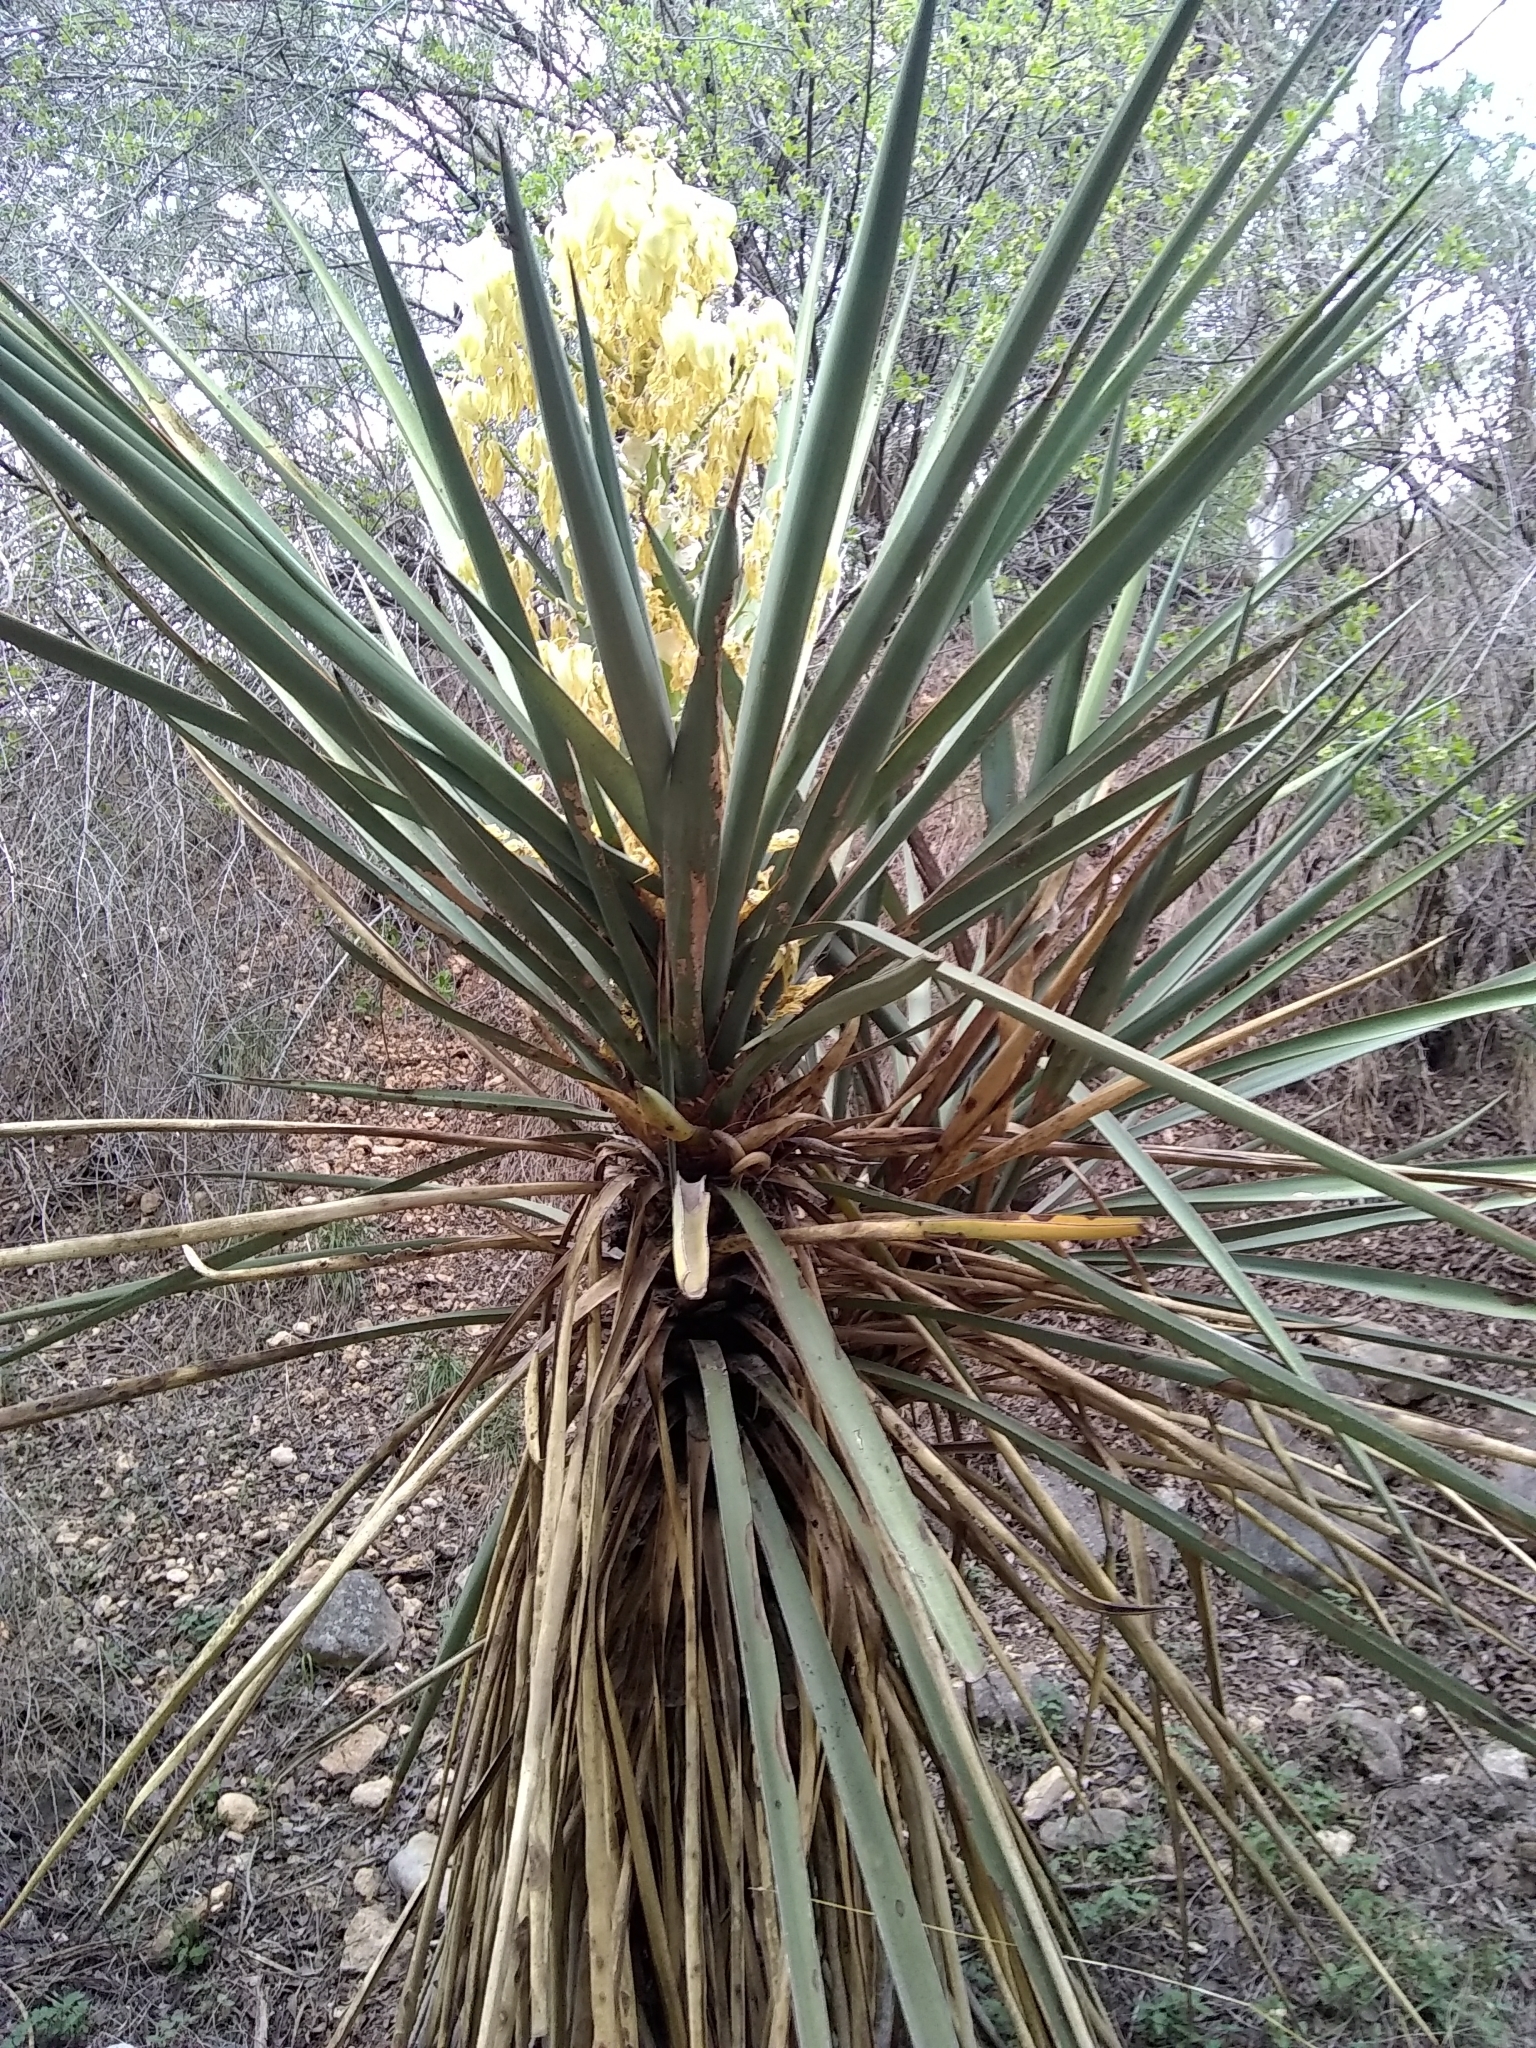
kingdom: Plantae
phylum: Tracheophyta
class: Liliopsida
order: Asparagales
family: Asparagaceae
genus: Yucca
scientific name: Yucca treculiana
